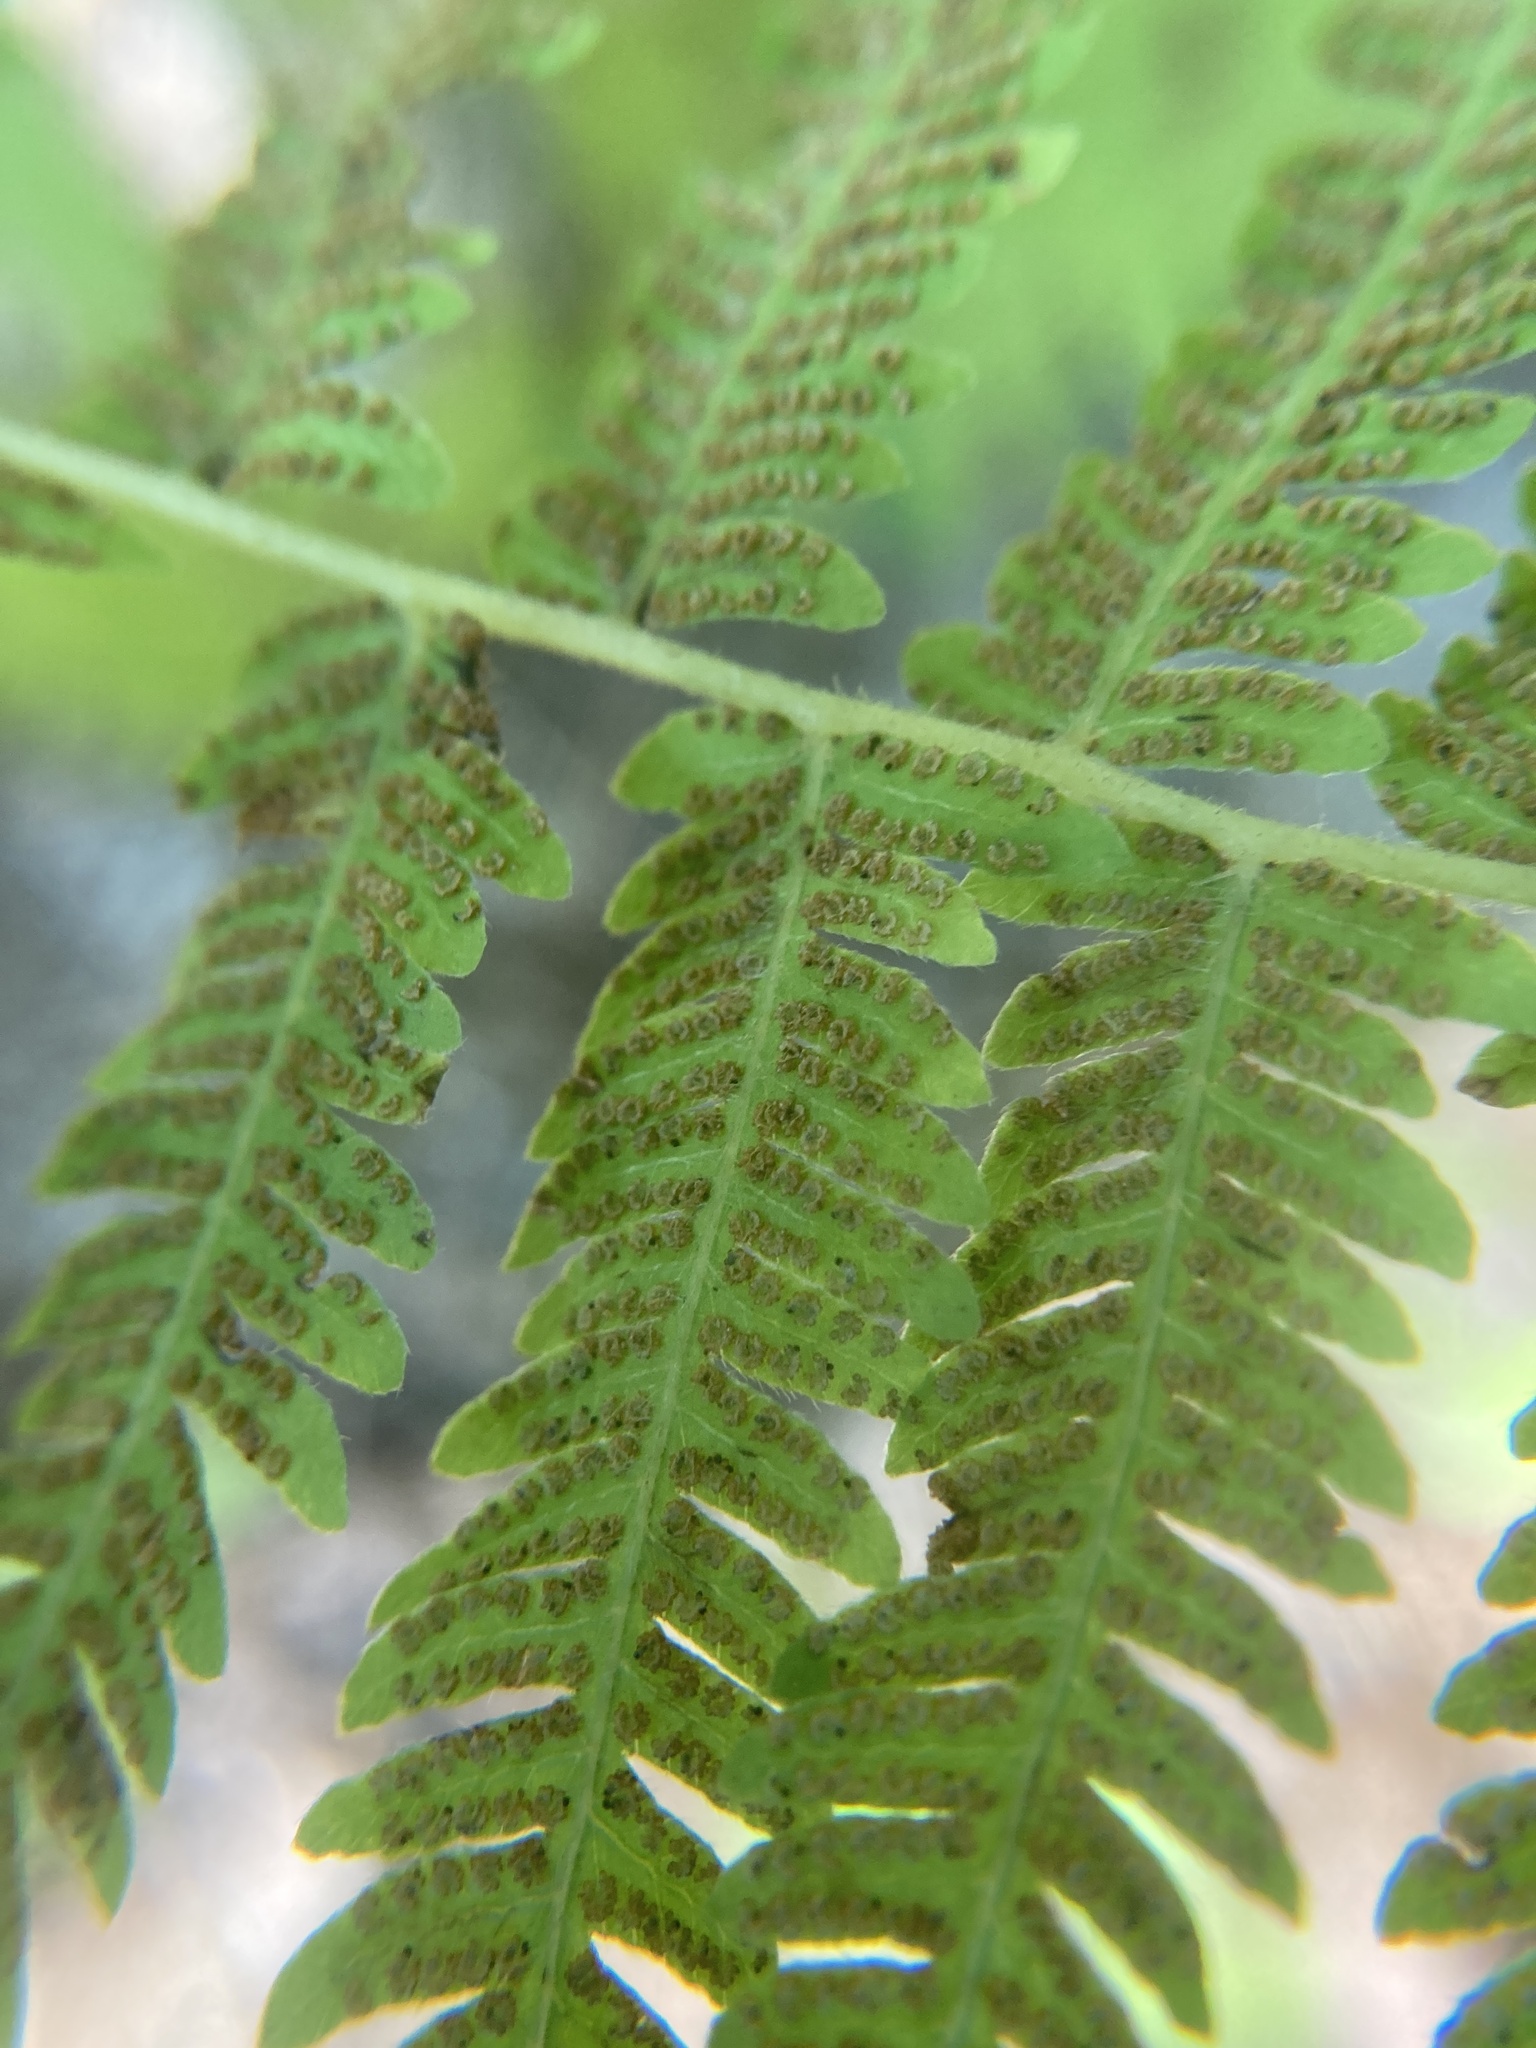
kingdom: Plantae
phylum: Tracheophyta
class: Polypodiopsida
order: Polypodiales
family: Thelypteridaceae
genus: Amauropelta
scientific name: Amauropelta noveboracensis
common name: New york fern
